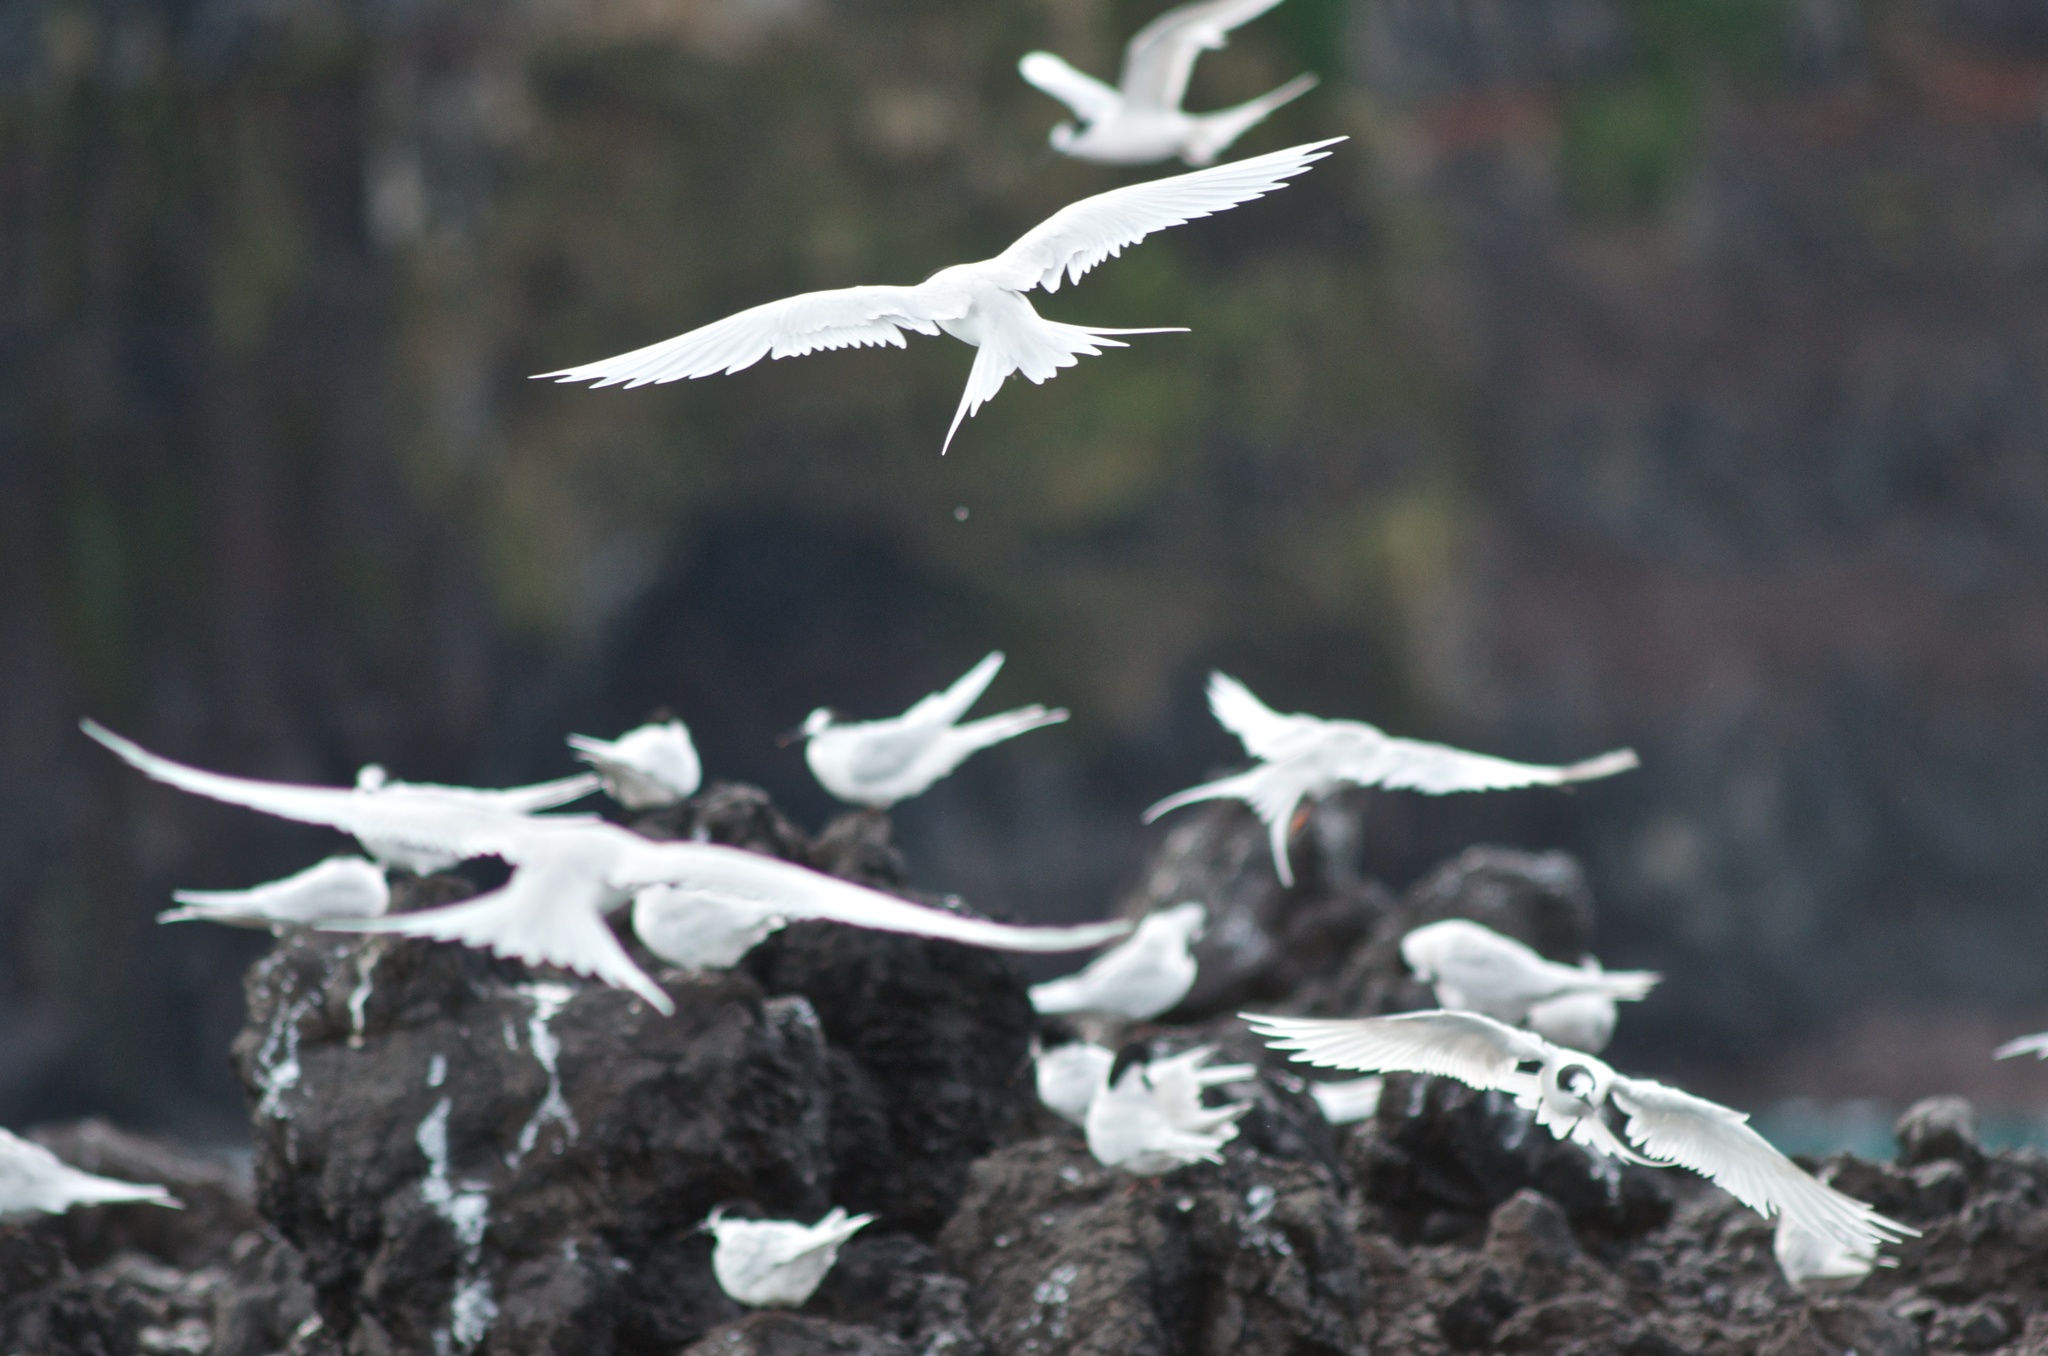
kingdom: Animalia
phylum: Chordata
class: Aves
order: Charadriiformes
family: Laridae
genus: Sterna
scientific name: Sterna striata
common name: White-fronted tern
